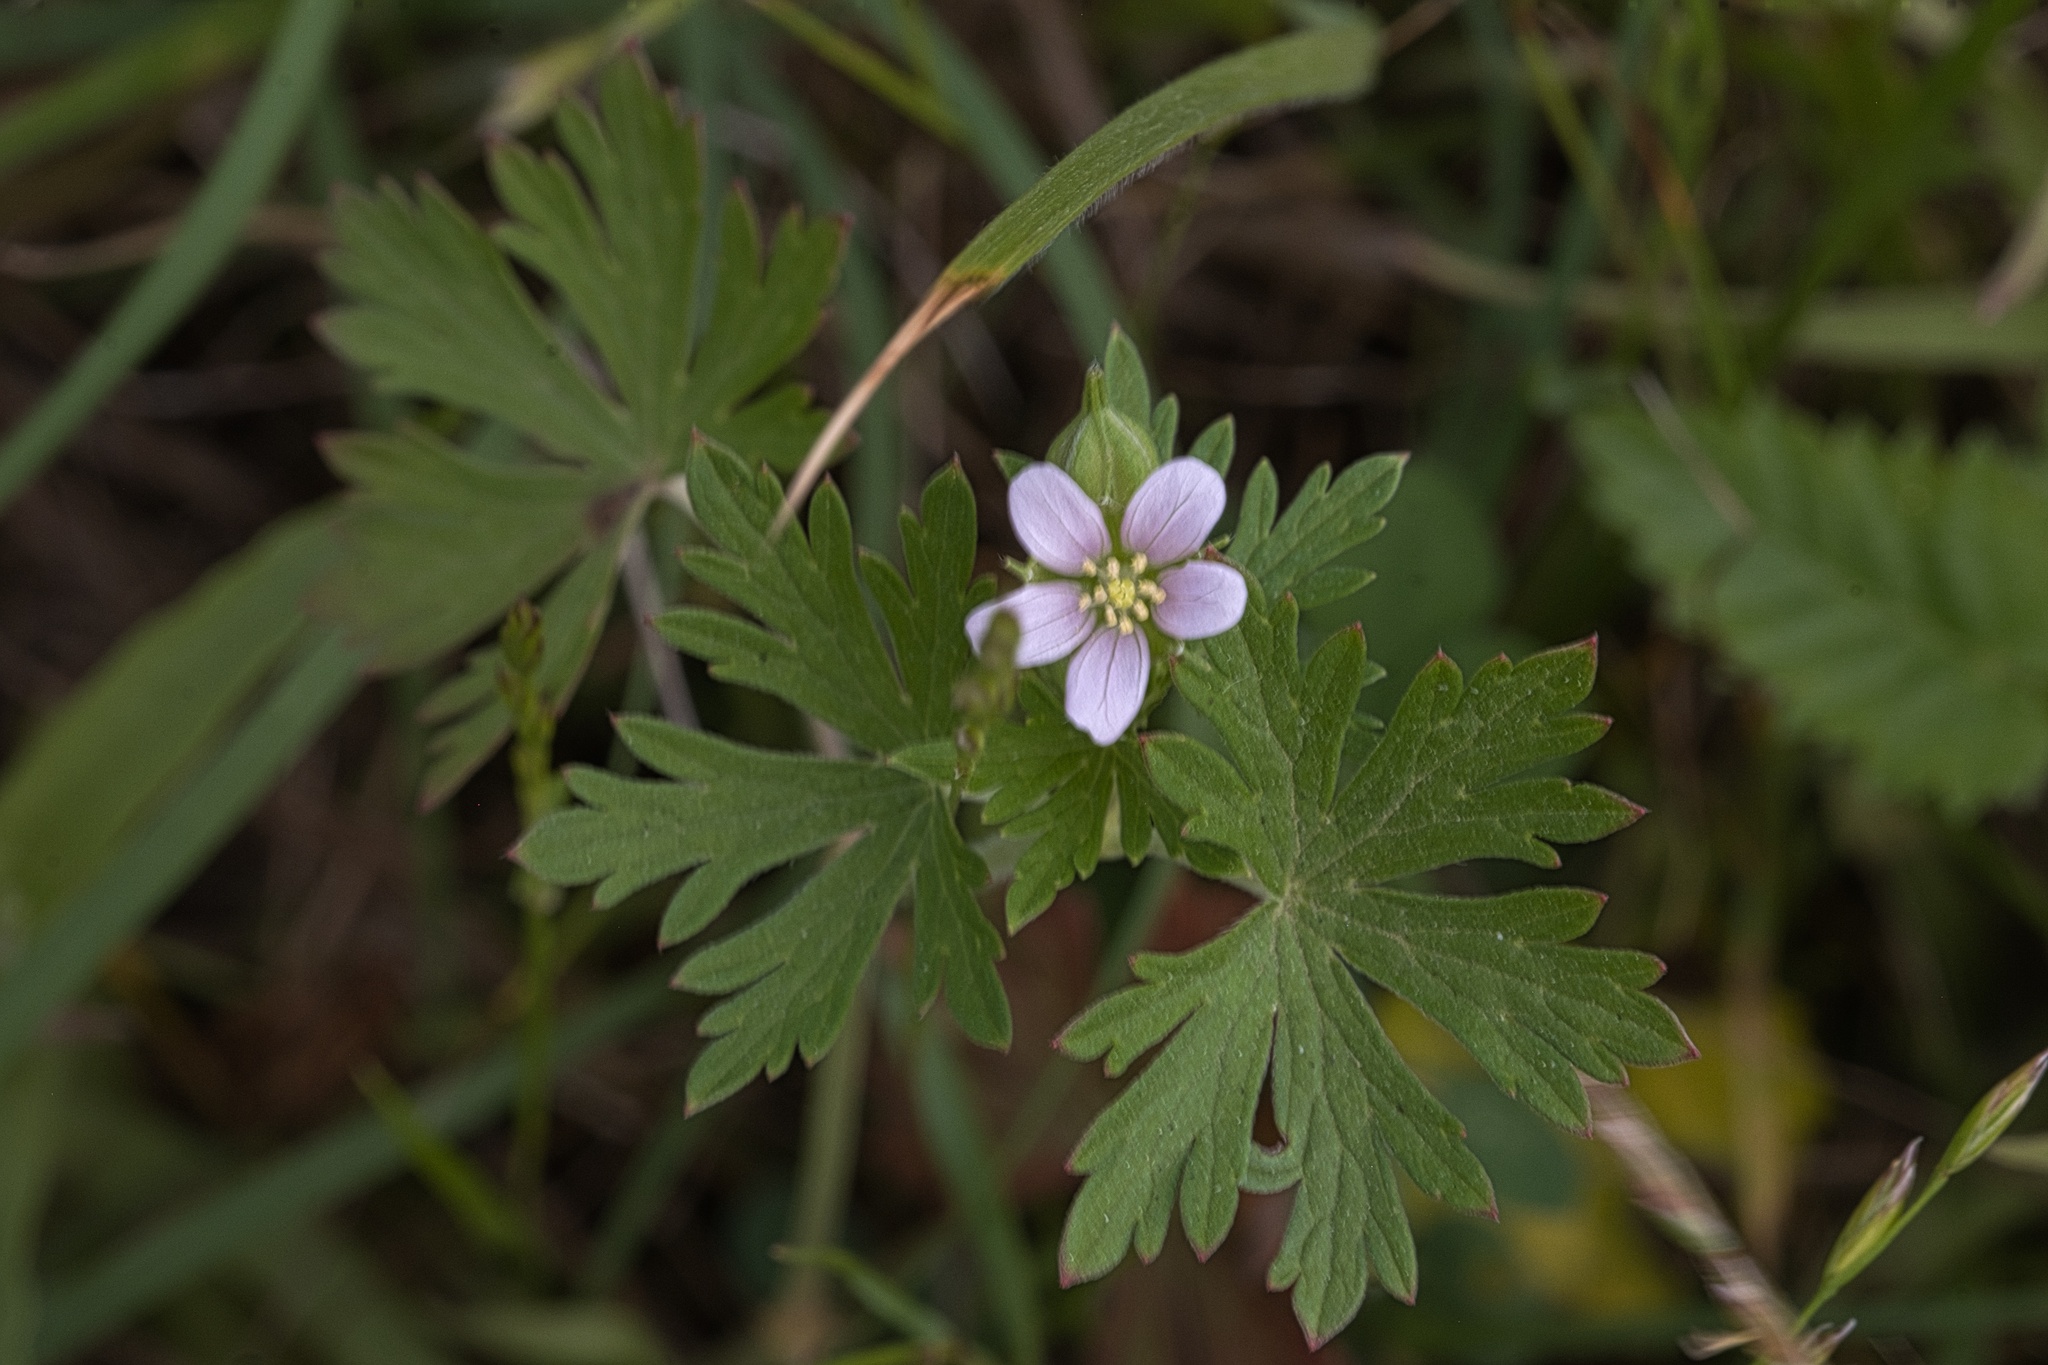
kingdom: Plantae
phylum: Tracheophyta
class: Magnoliopsida
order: Geraniales
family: Geraniaceae
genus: Geranium
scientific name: Geranium carolinianum
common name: Carolina crane's-bill
